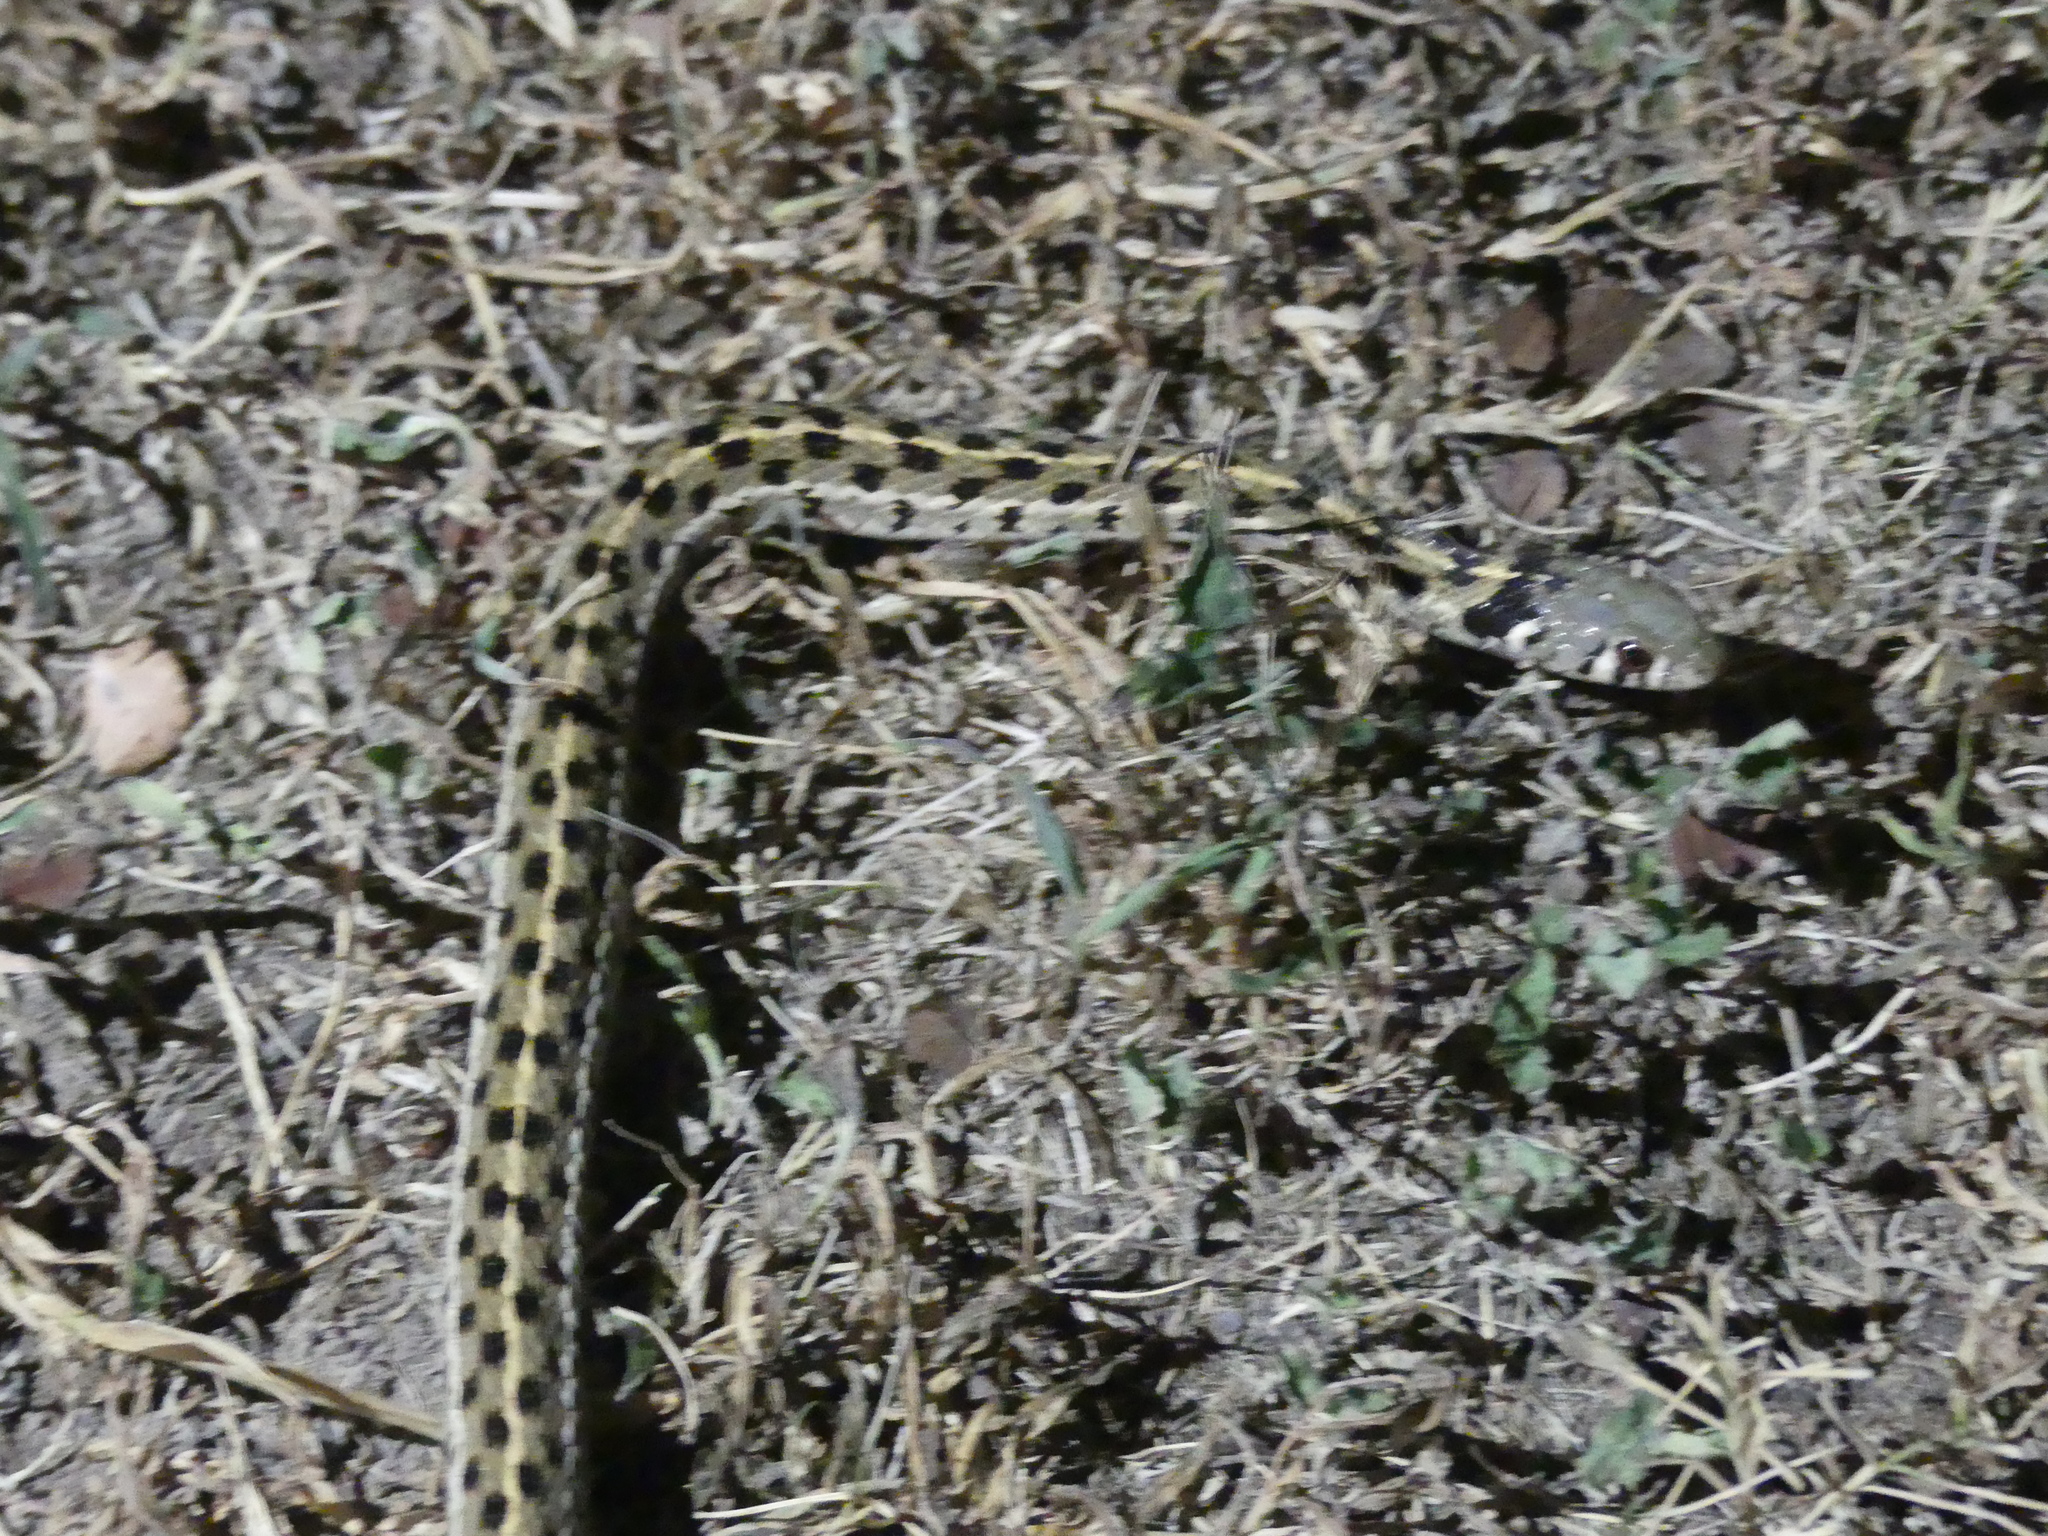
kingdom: Animalia
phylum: Chordata
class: Squamata
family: Colubridae
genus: Thamnophis
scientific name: Thamnophis marcianus
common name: Checkered garter snake
